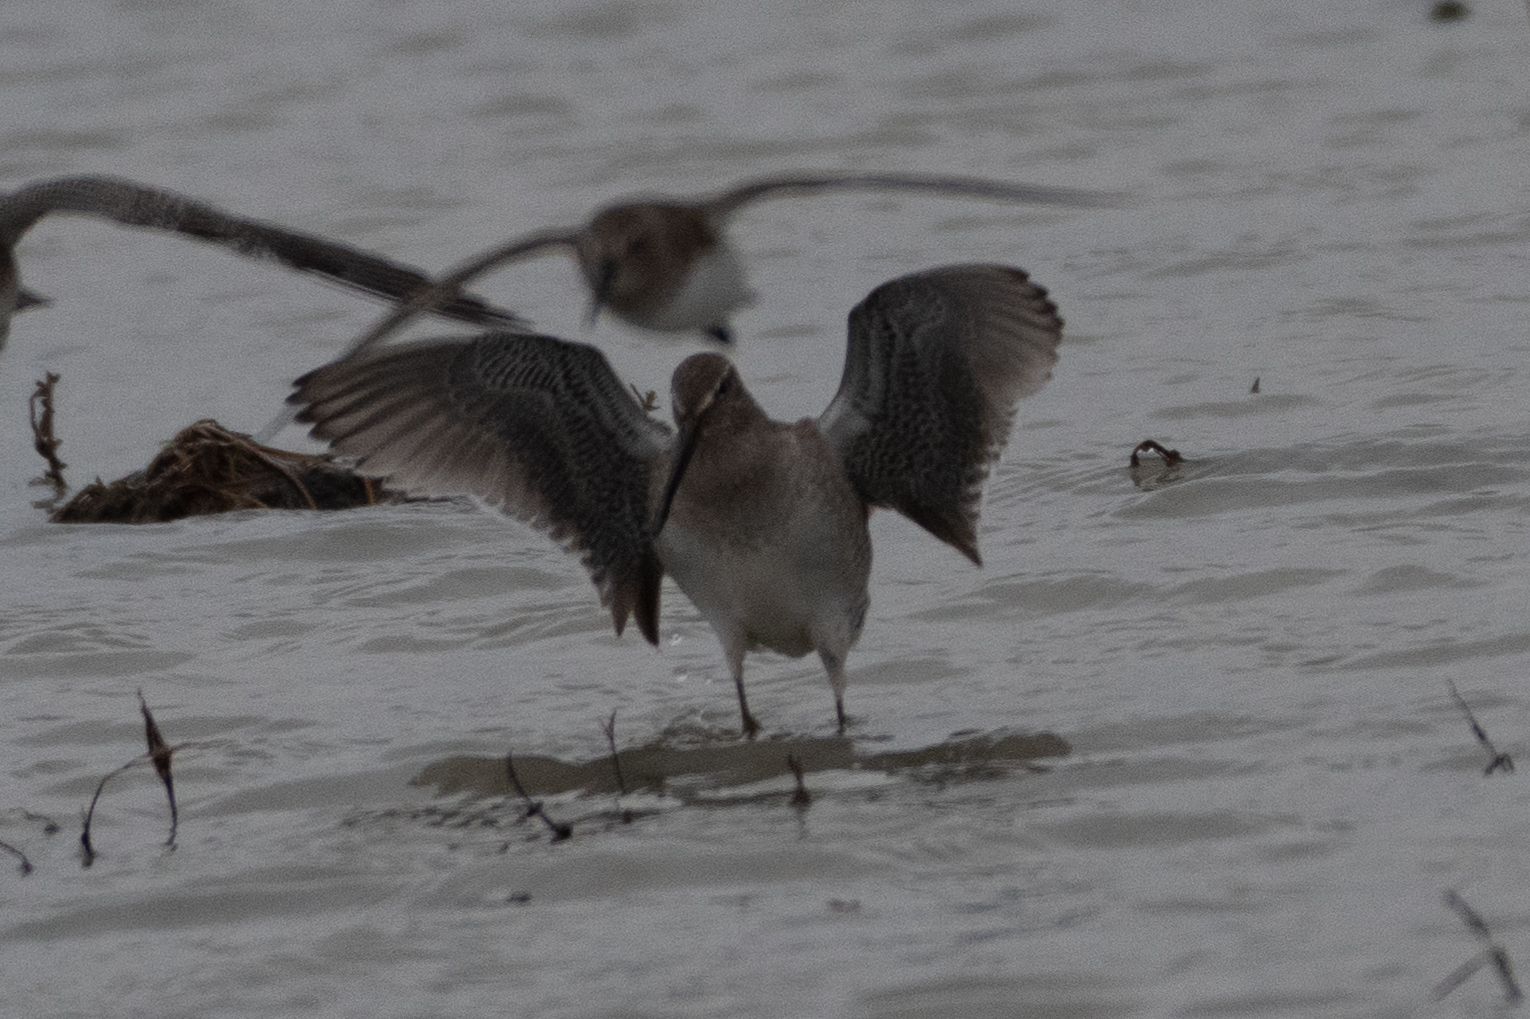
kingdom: Animalia
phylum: Chordata
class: Aves
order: Charadriiformes
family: Scolopacidae
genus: Limnodromus
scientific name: Limnodromus scolopaceus
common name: Long-billed dowitcher
